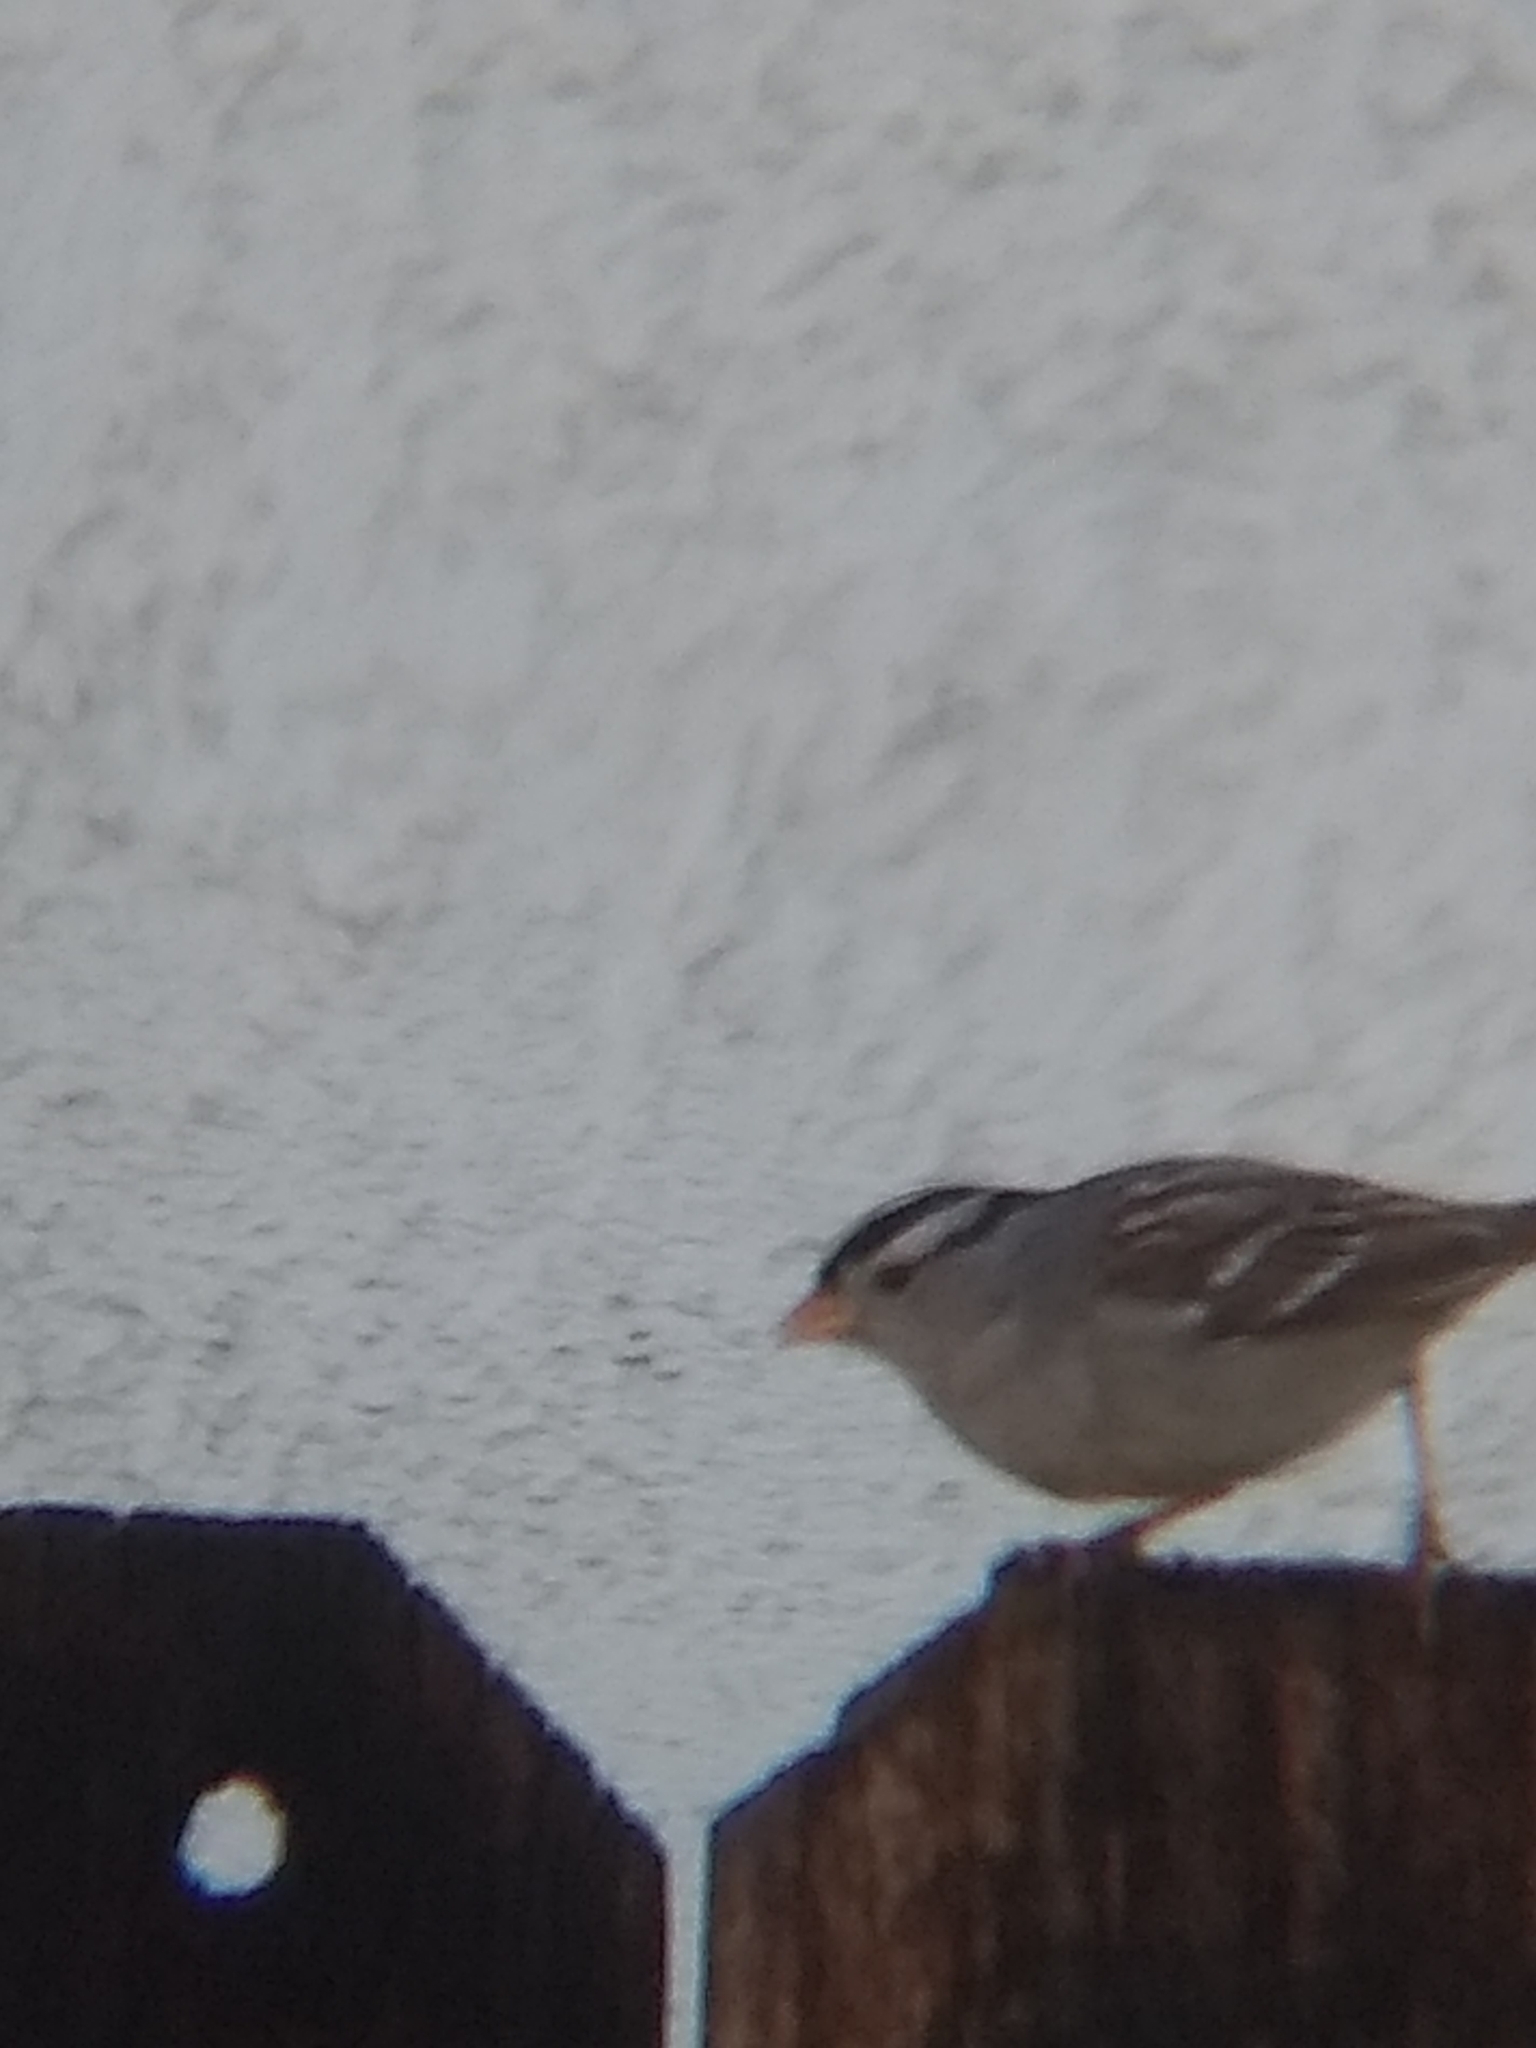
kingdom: Animalia
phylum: Chordata
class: Aves
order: Passeriformes
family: Passerellidae
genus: Zonotrichia
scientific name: Zonotrichia leucophrys
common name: White-crowned sparrow
